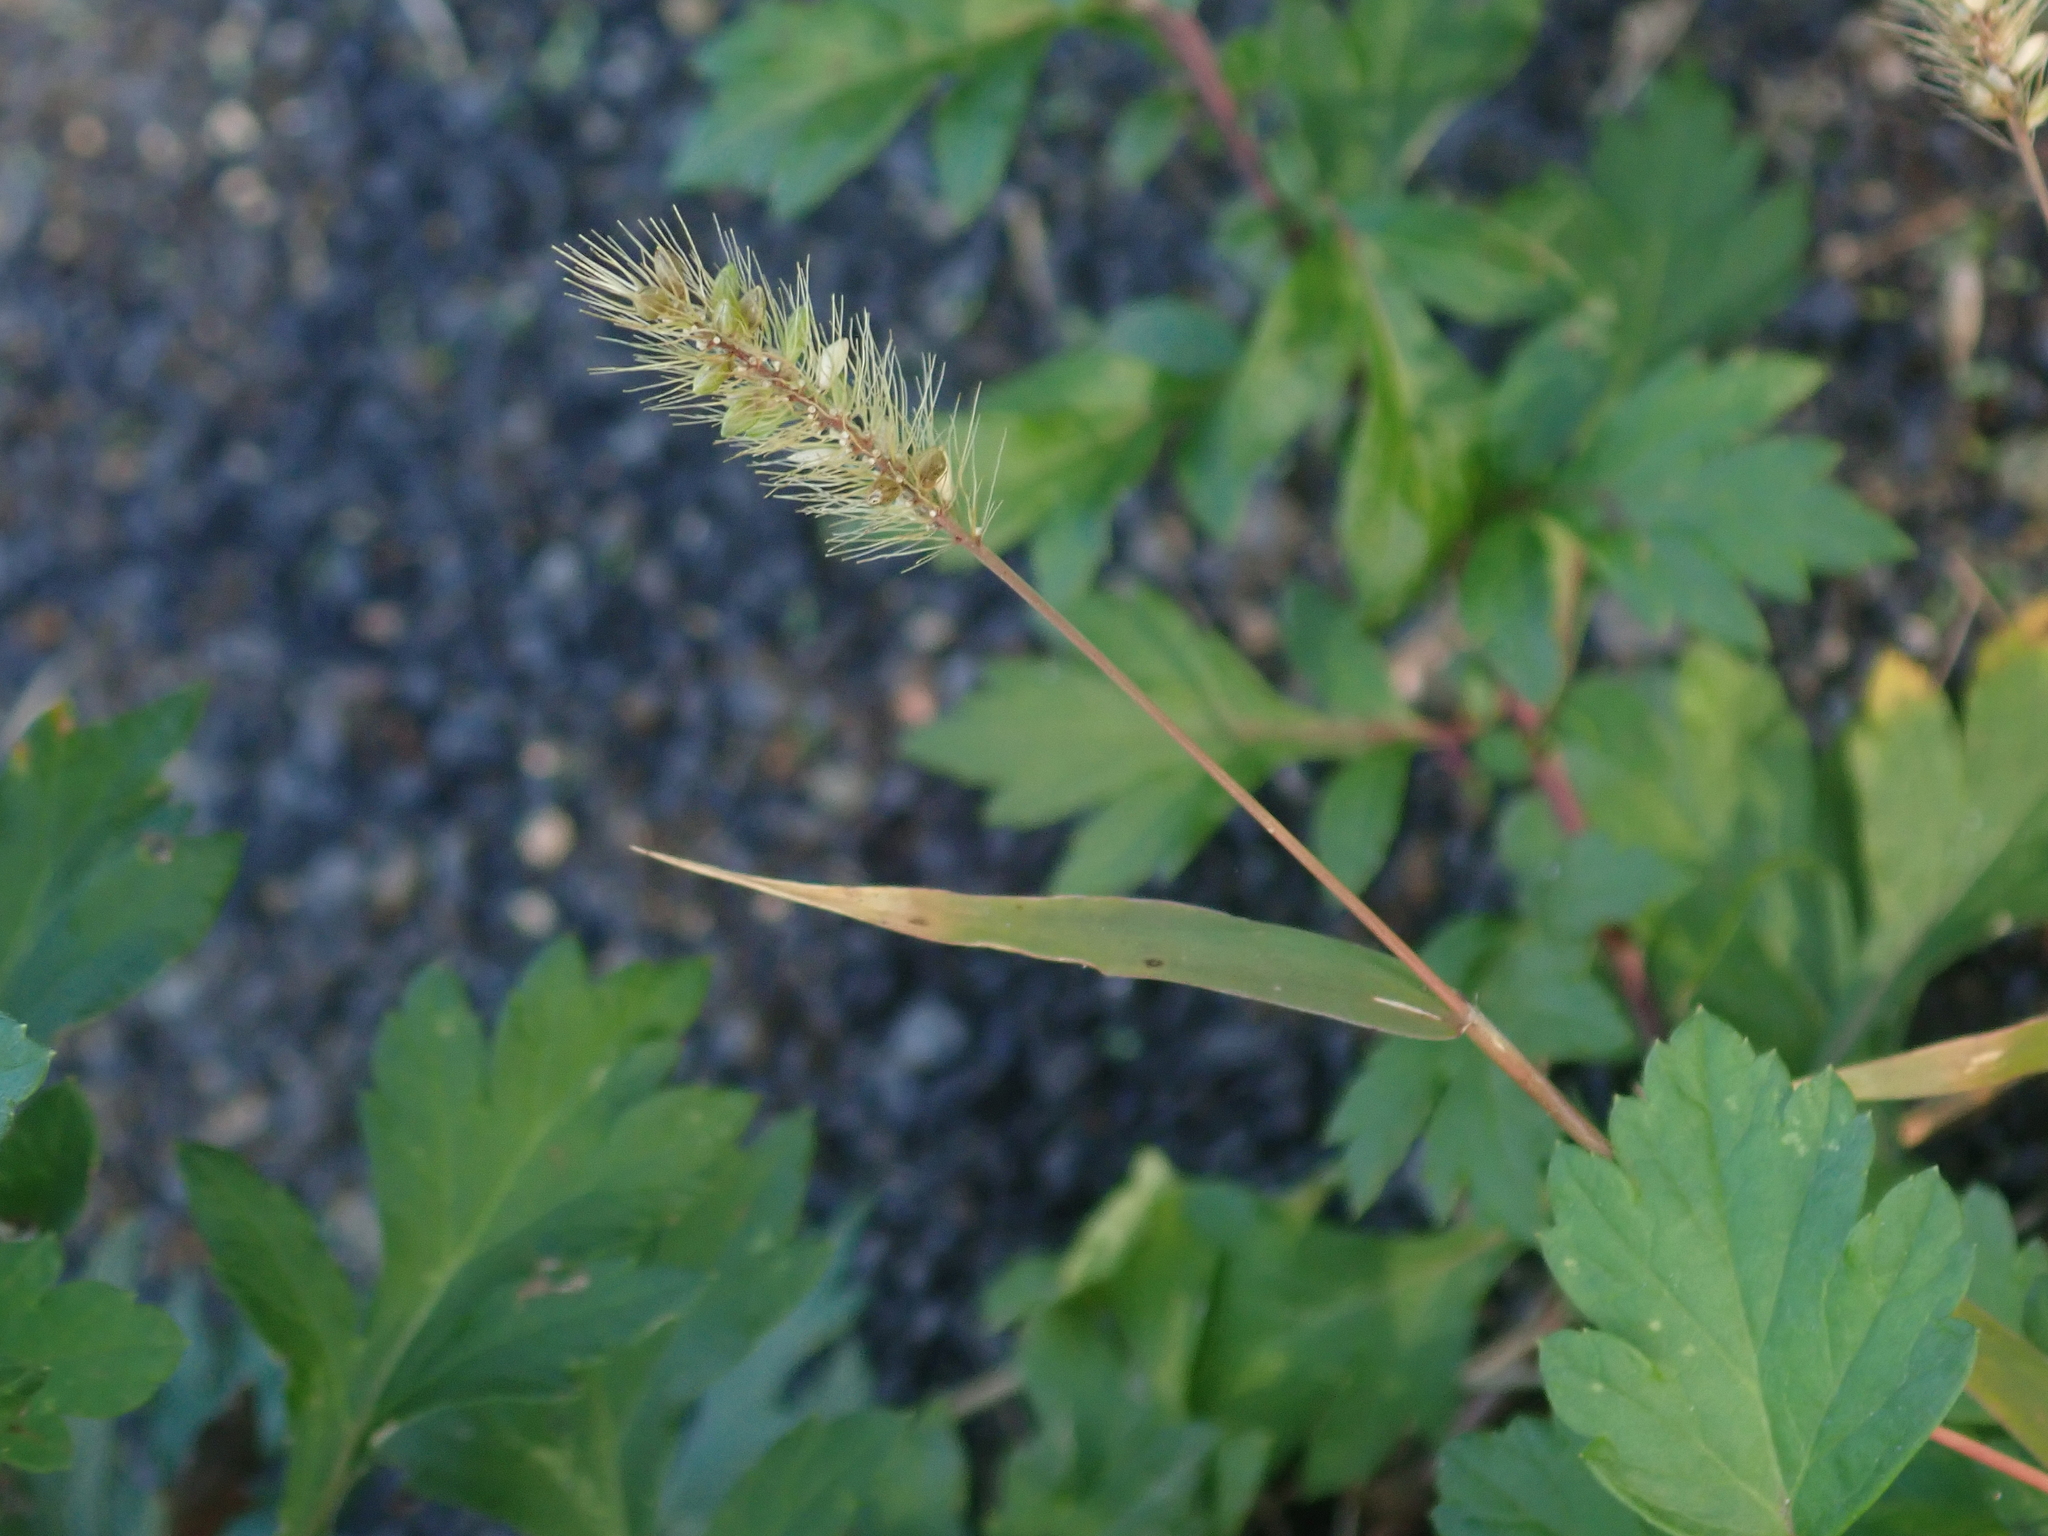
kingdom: Plantae
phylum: Tracheophyta
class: Liliopsida
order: Poales
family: Poaceae
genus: Setaria
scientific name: Setaria viridis
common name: Green bristlegrass
